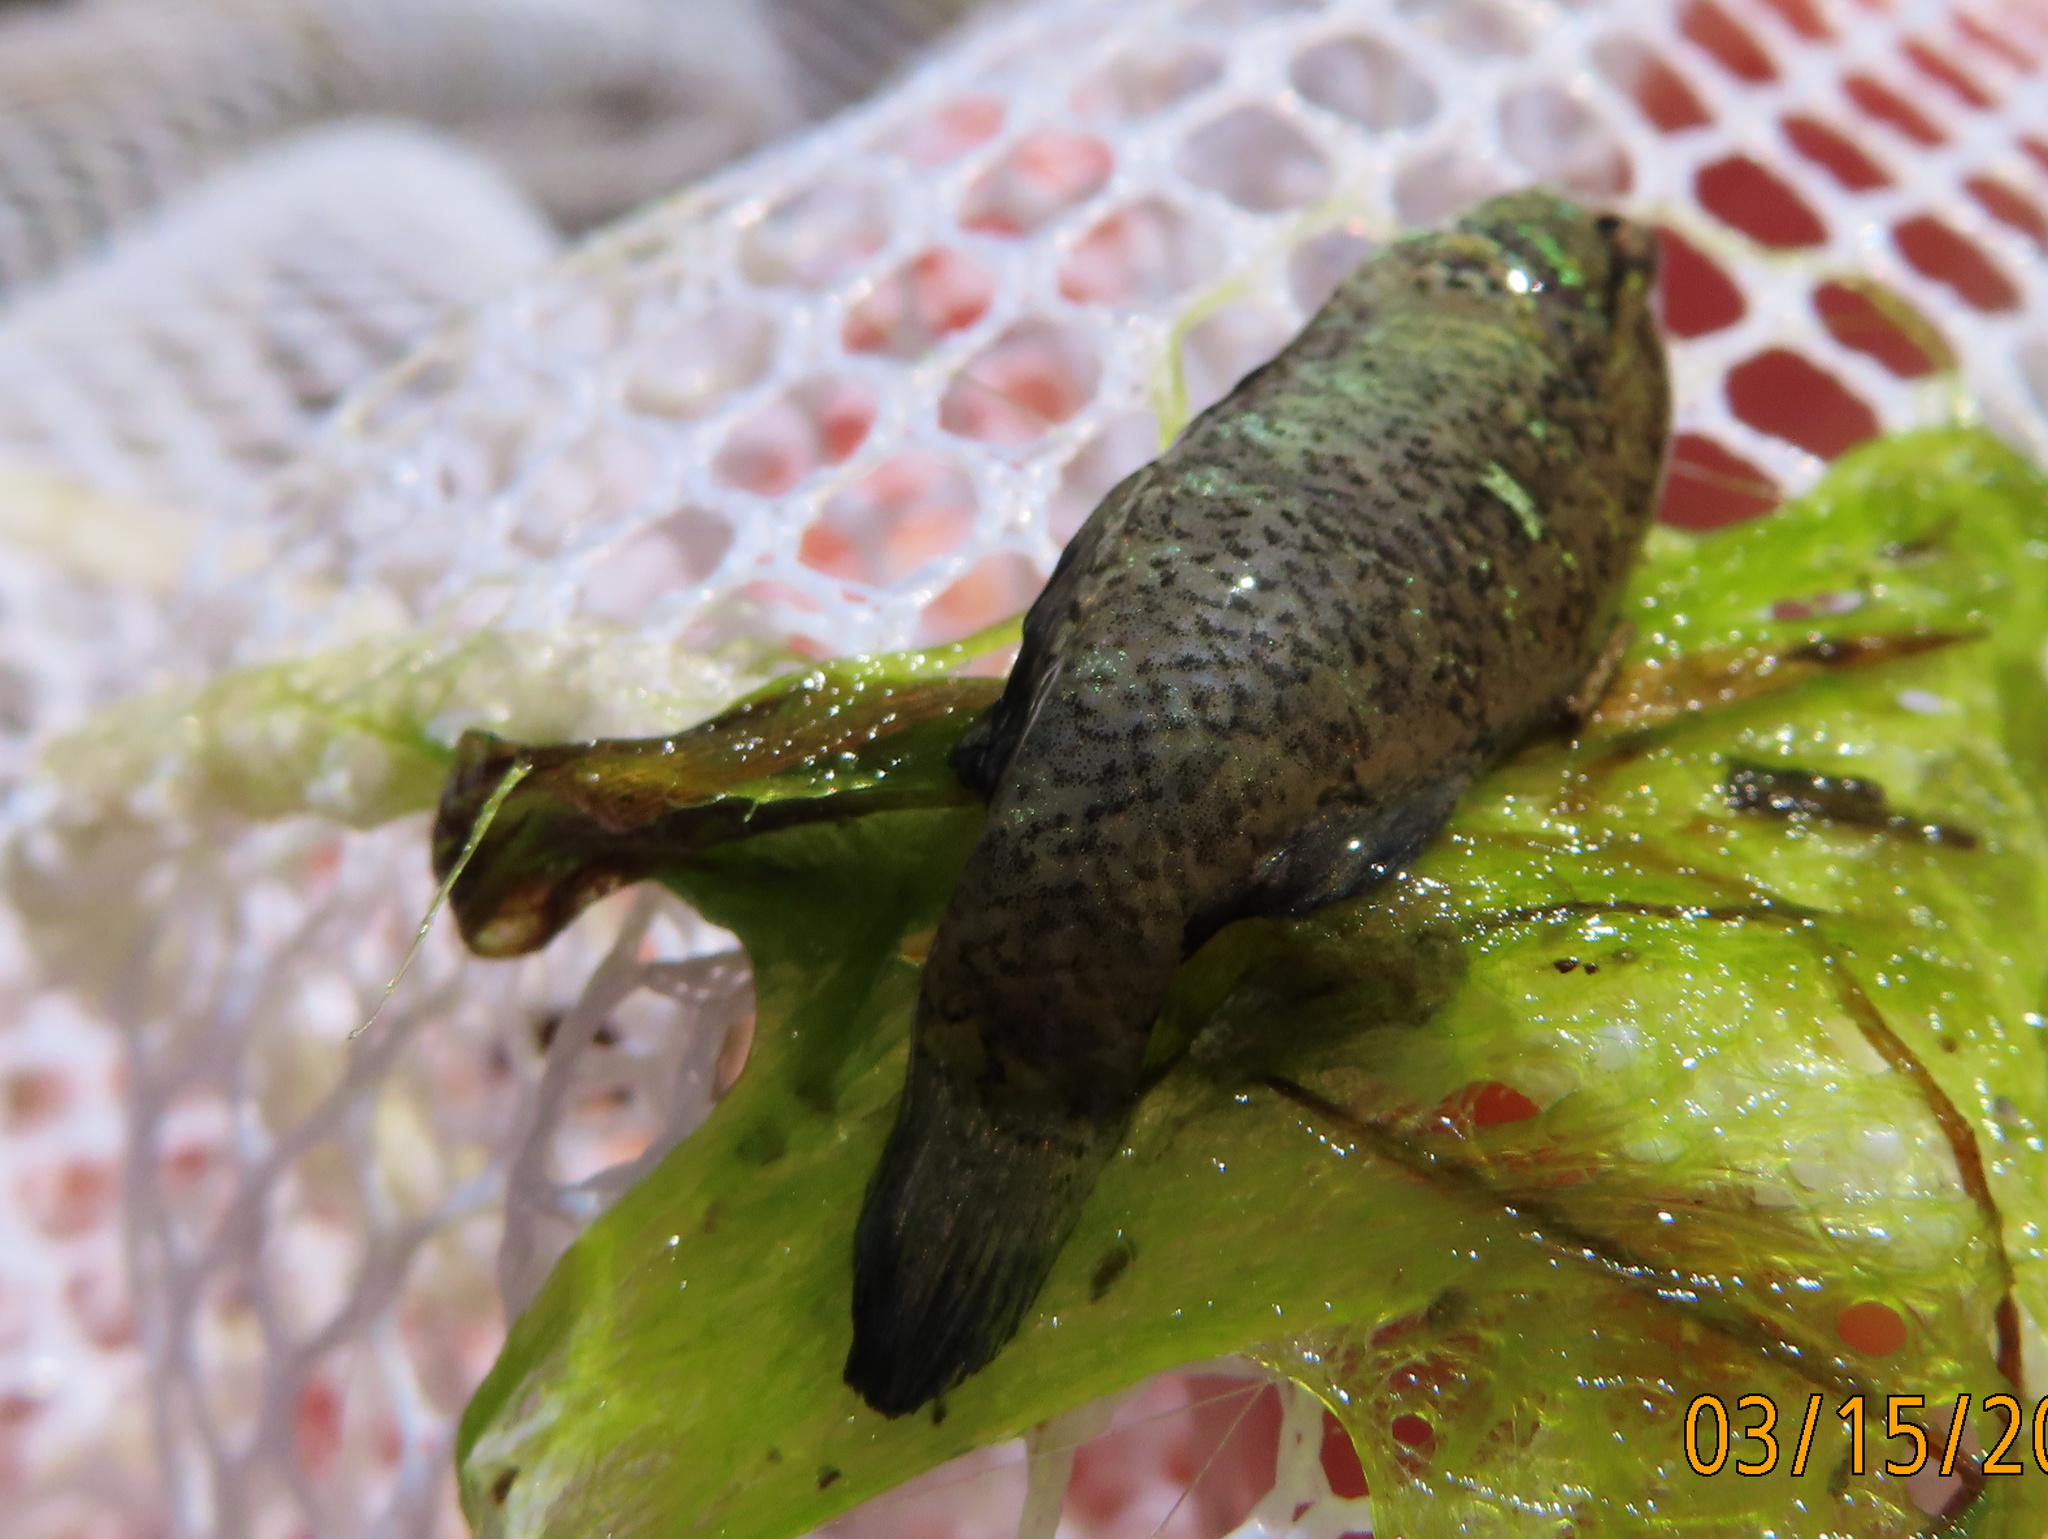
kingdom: Animalia
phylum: Chordata
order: Perciformes
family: Elassomatidae
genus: Elassoma
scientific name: Elassoma zonatum
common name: Banded pygmy sunfish
